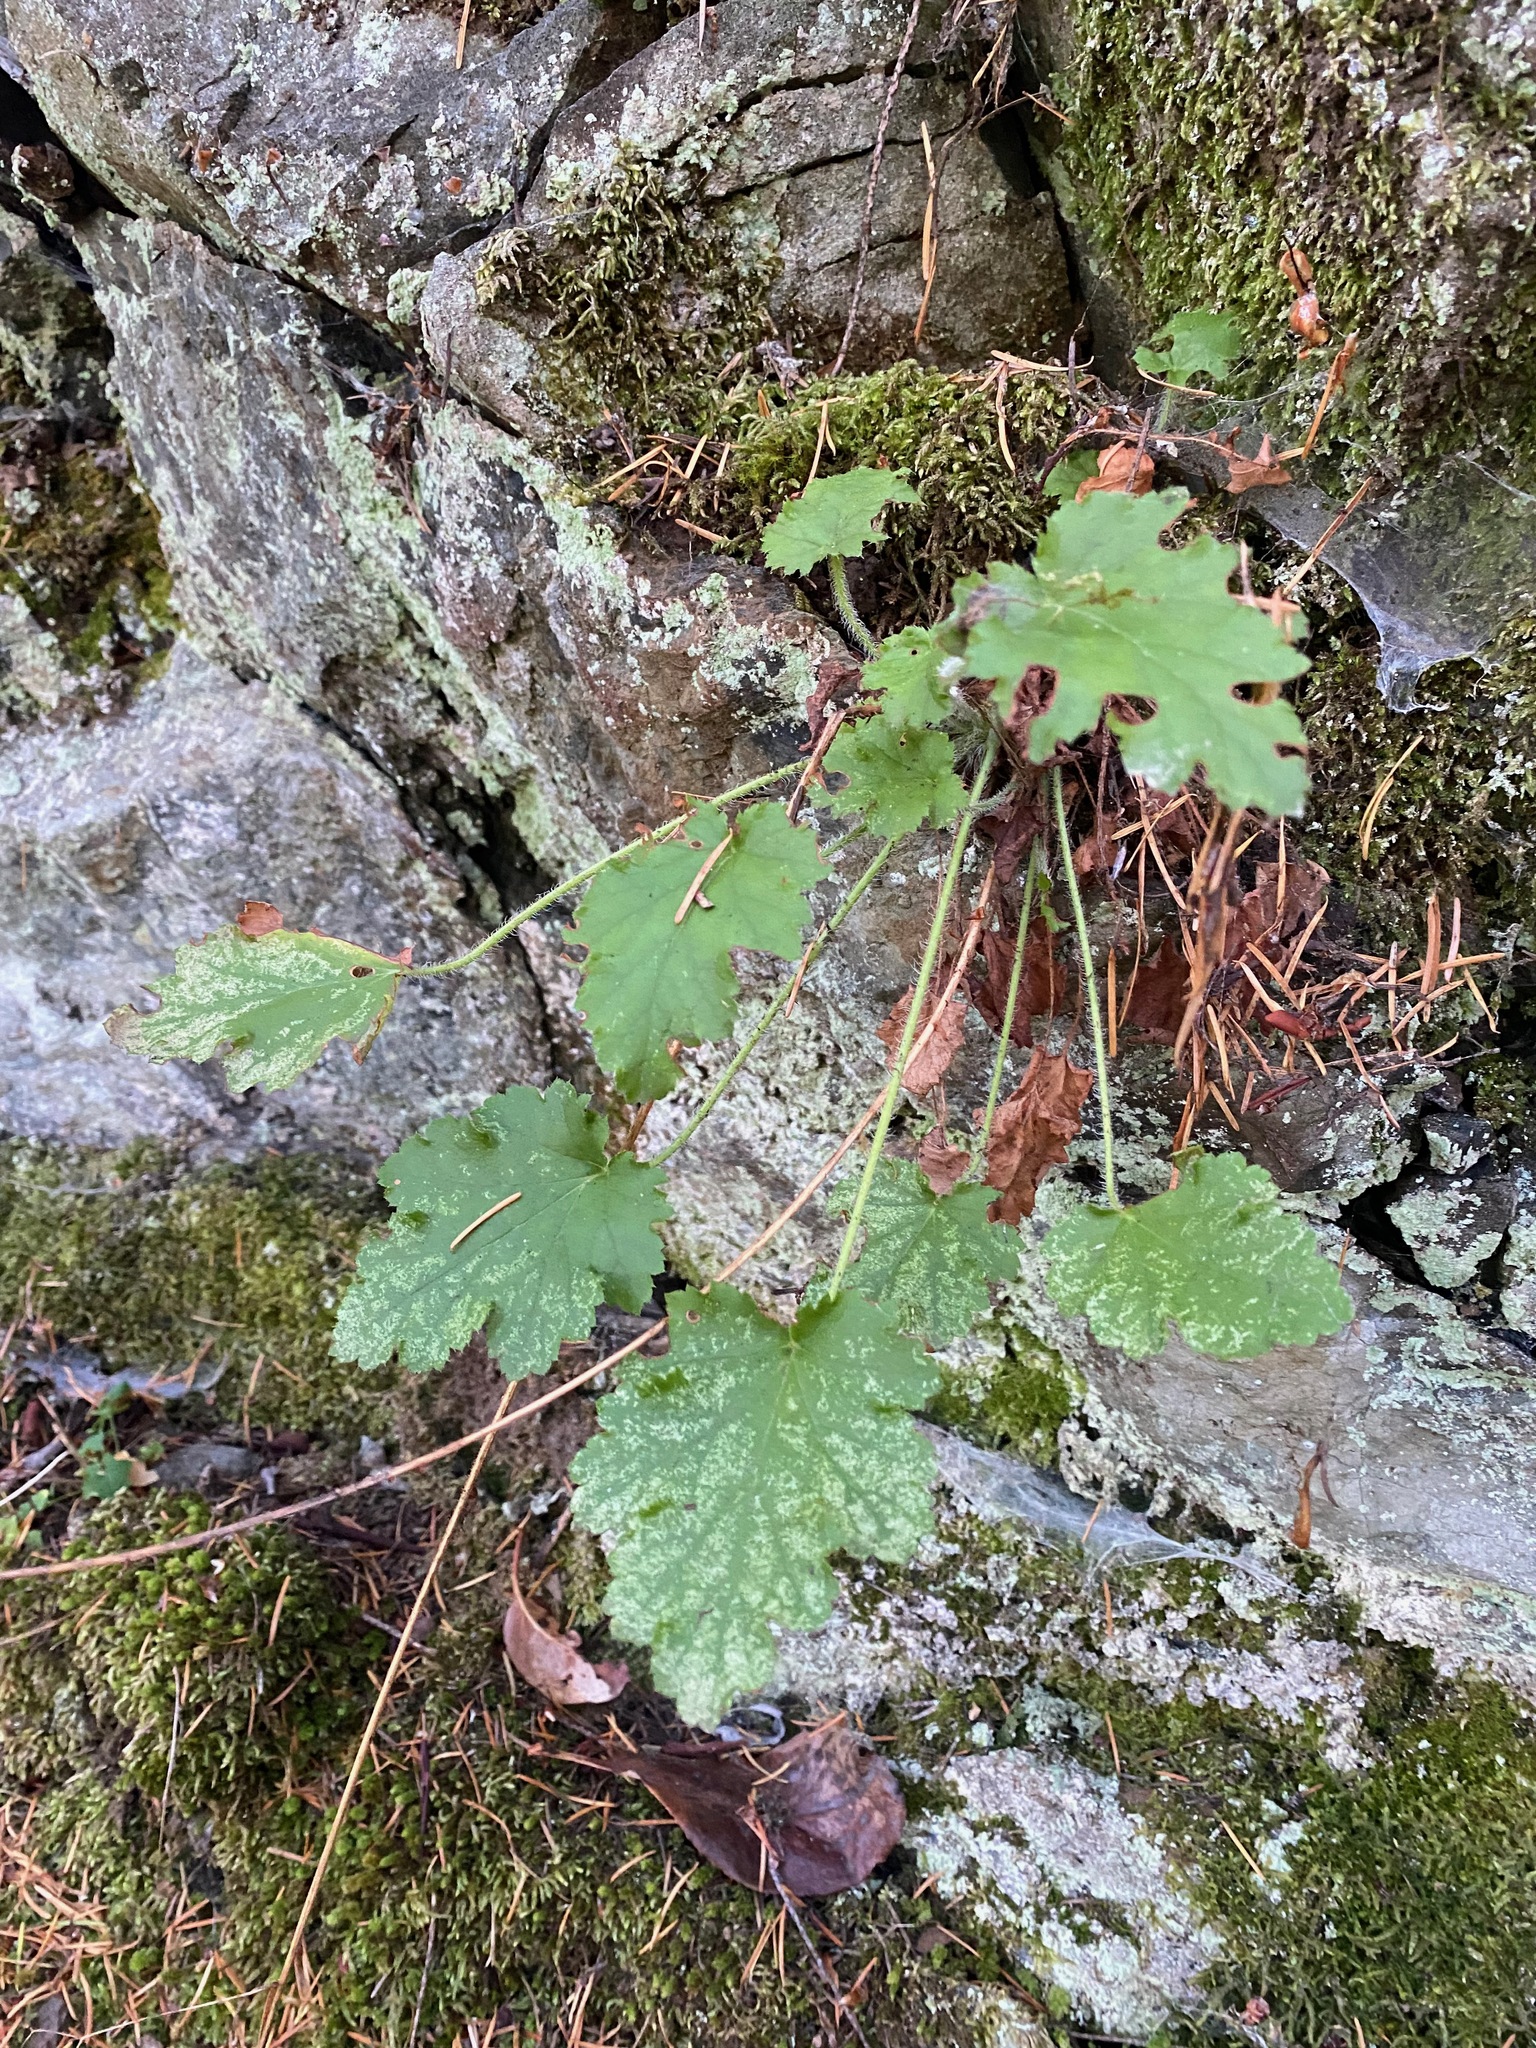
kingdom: Plantae
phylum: Tracheophyta
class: Magnoliopsida
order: Saxifragales
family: Saxifragaceae
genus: Heuchera
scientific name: Heuchera micrantha
